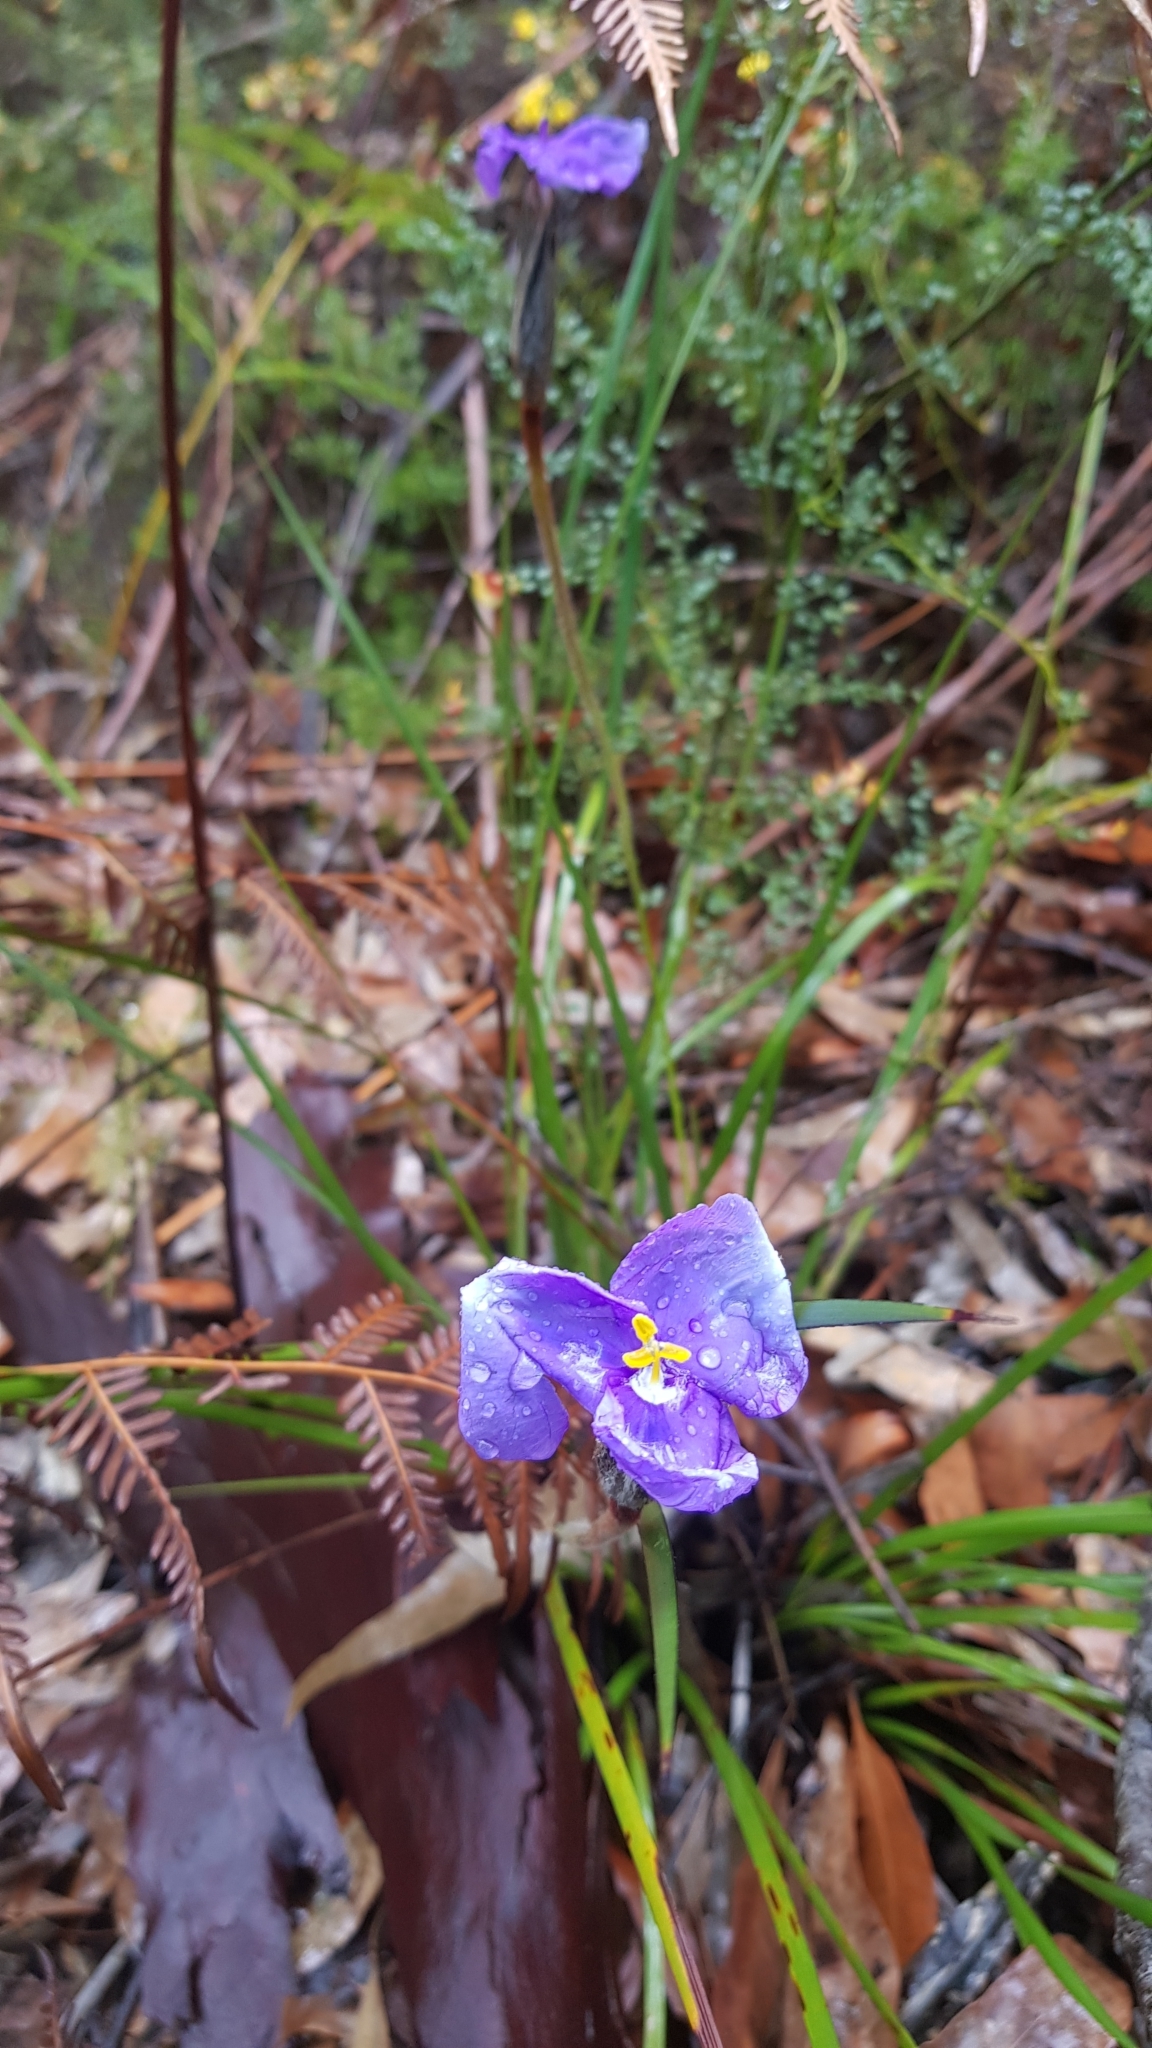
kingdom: Plantae
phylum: Tracheophyta
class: Liliopsida
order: Asparagales
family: Iridaceae
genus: Patersonia
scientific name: Patersonia sericea
